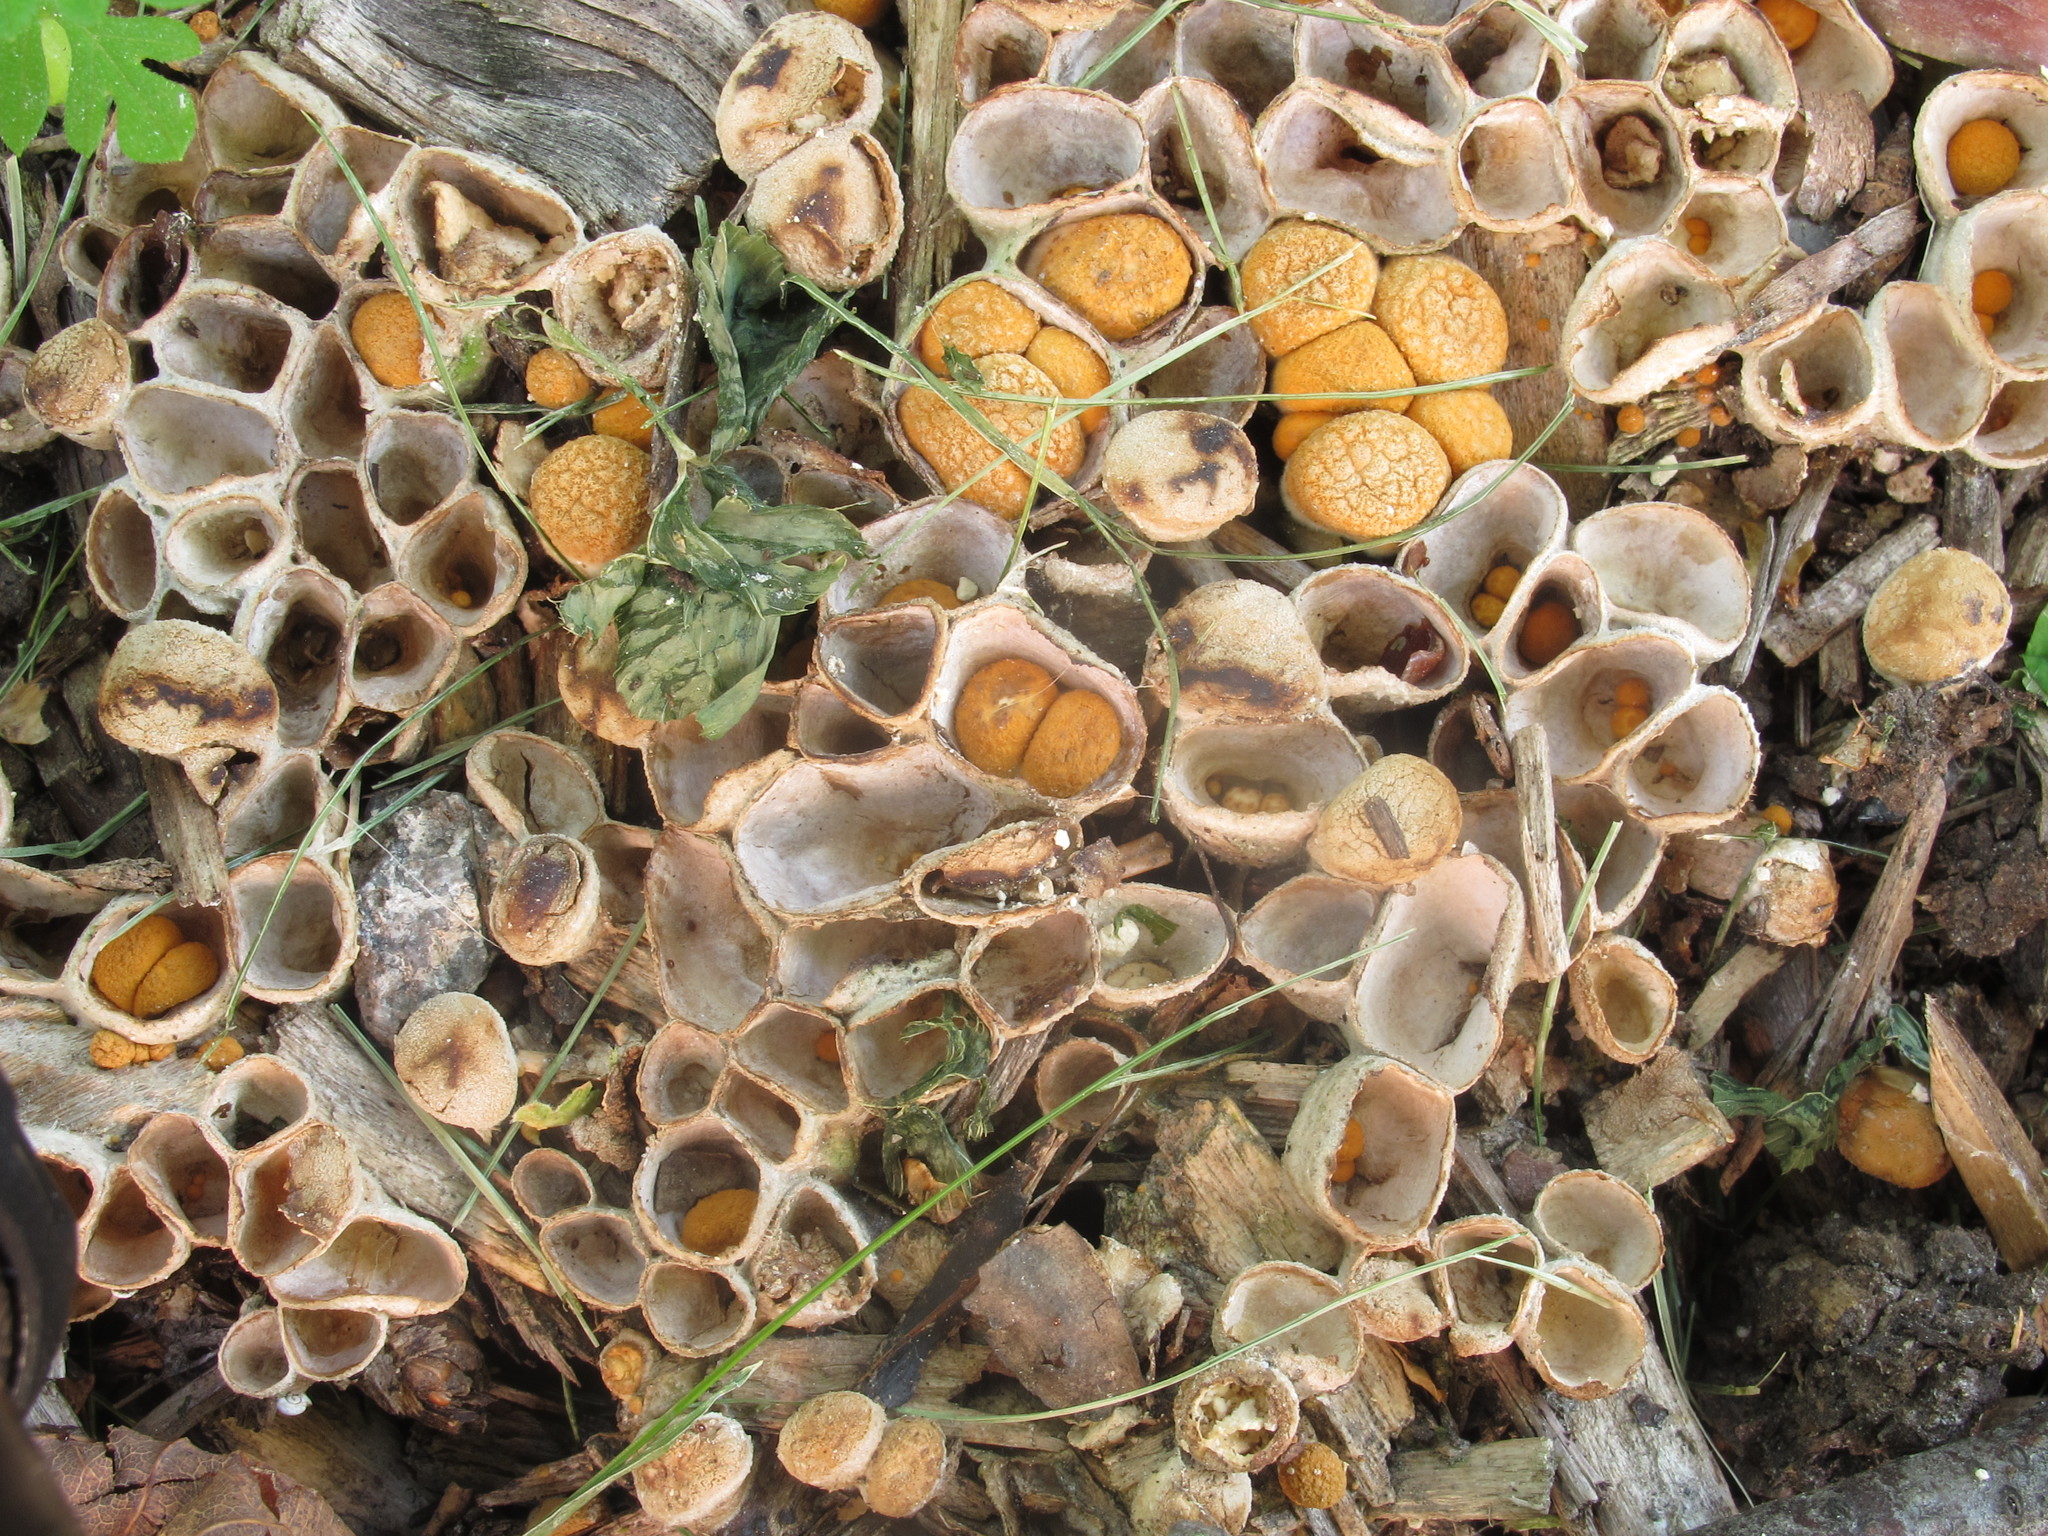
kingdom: Fungi
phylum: Basidiomycota
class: Agaricomycetes
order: Agaricales
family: Nidulariaceae
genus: Crucibulum
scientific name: Crucibulum laeve
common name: Common bird's nest
